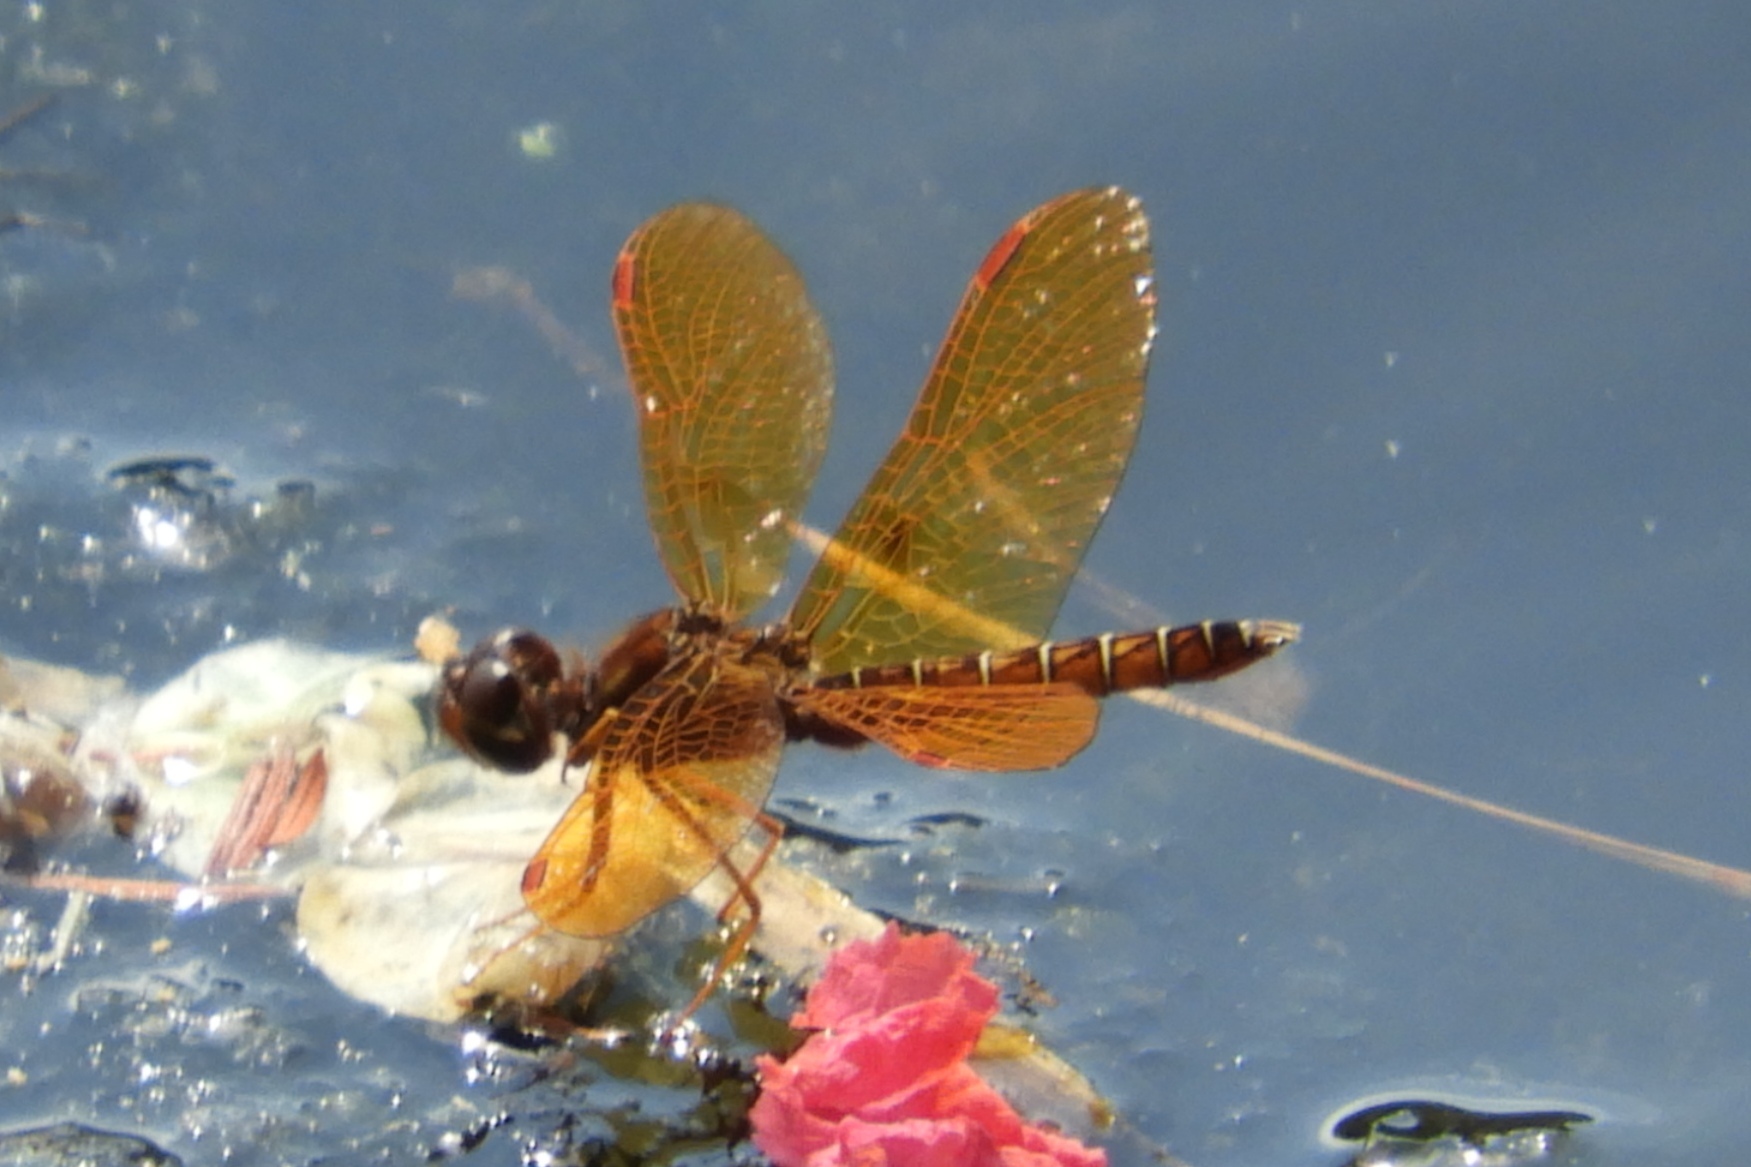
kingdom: Animalia
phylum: Arthropoda
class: Insecta
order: Odonata
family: Libellulidae
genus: Perithemis
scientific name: Perithemis tenera
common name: Eastern amberwing
